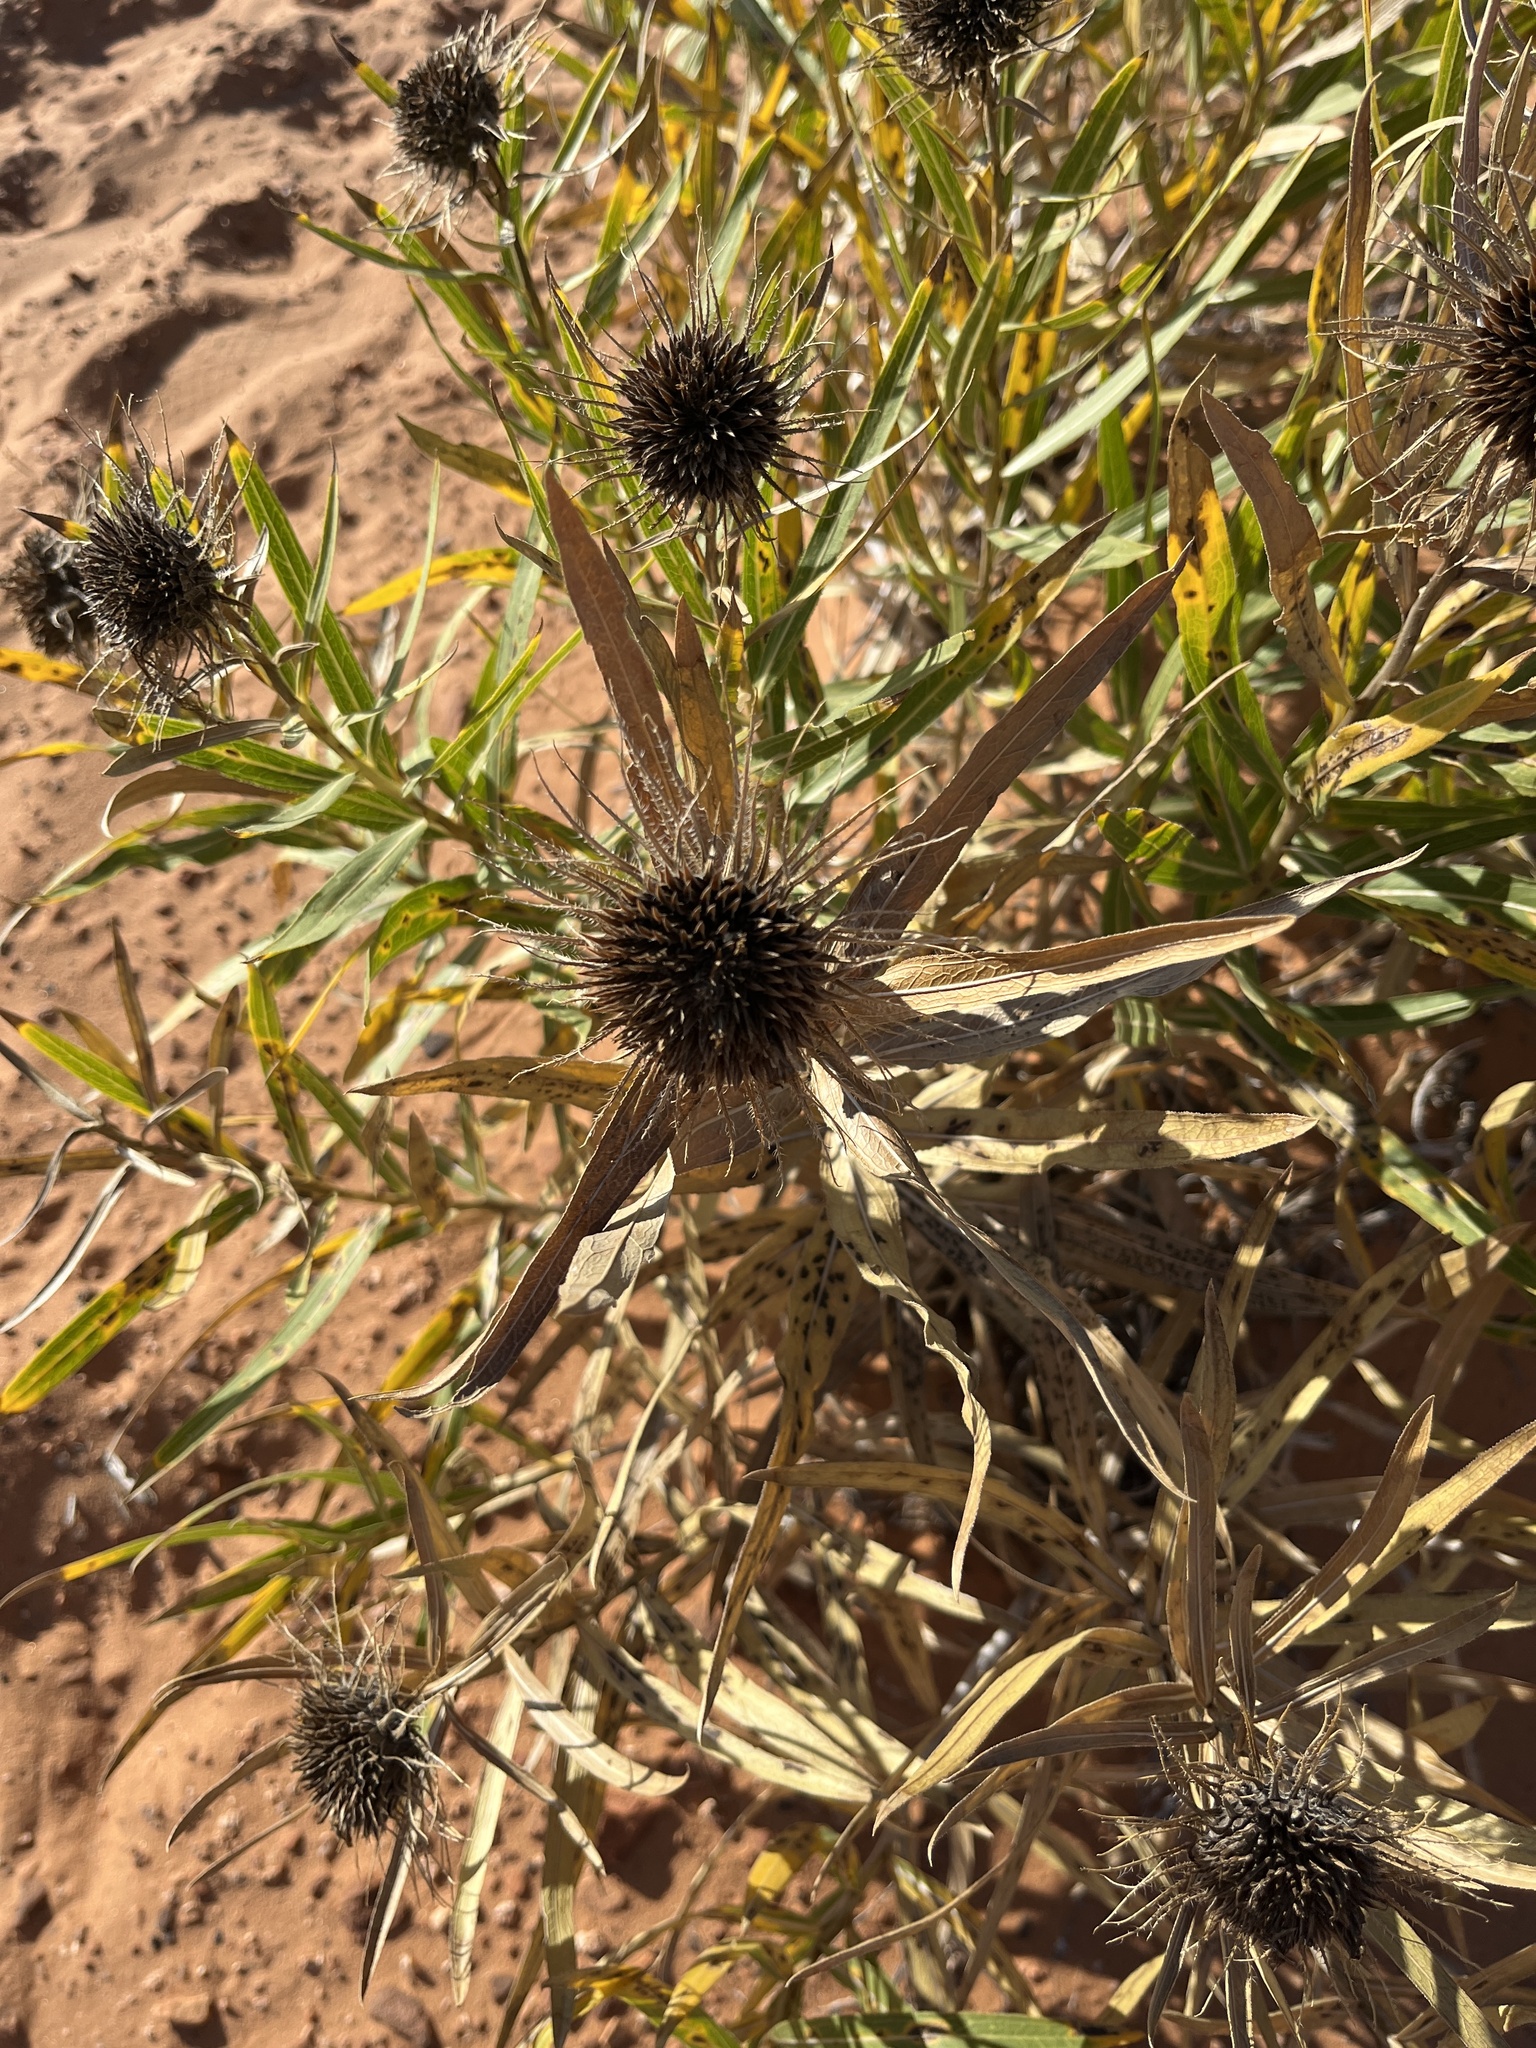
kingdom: Plantae
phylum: Tracheophyta
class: Magnoliopsida
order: Asterales
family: Asteraceae
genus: Scabrethia
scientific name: Scabrethia scabra
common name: Rough mules's-ears
